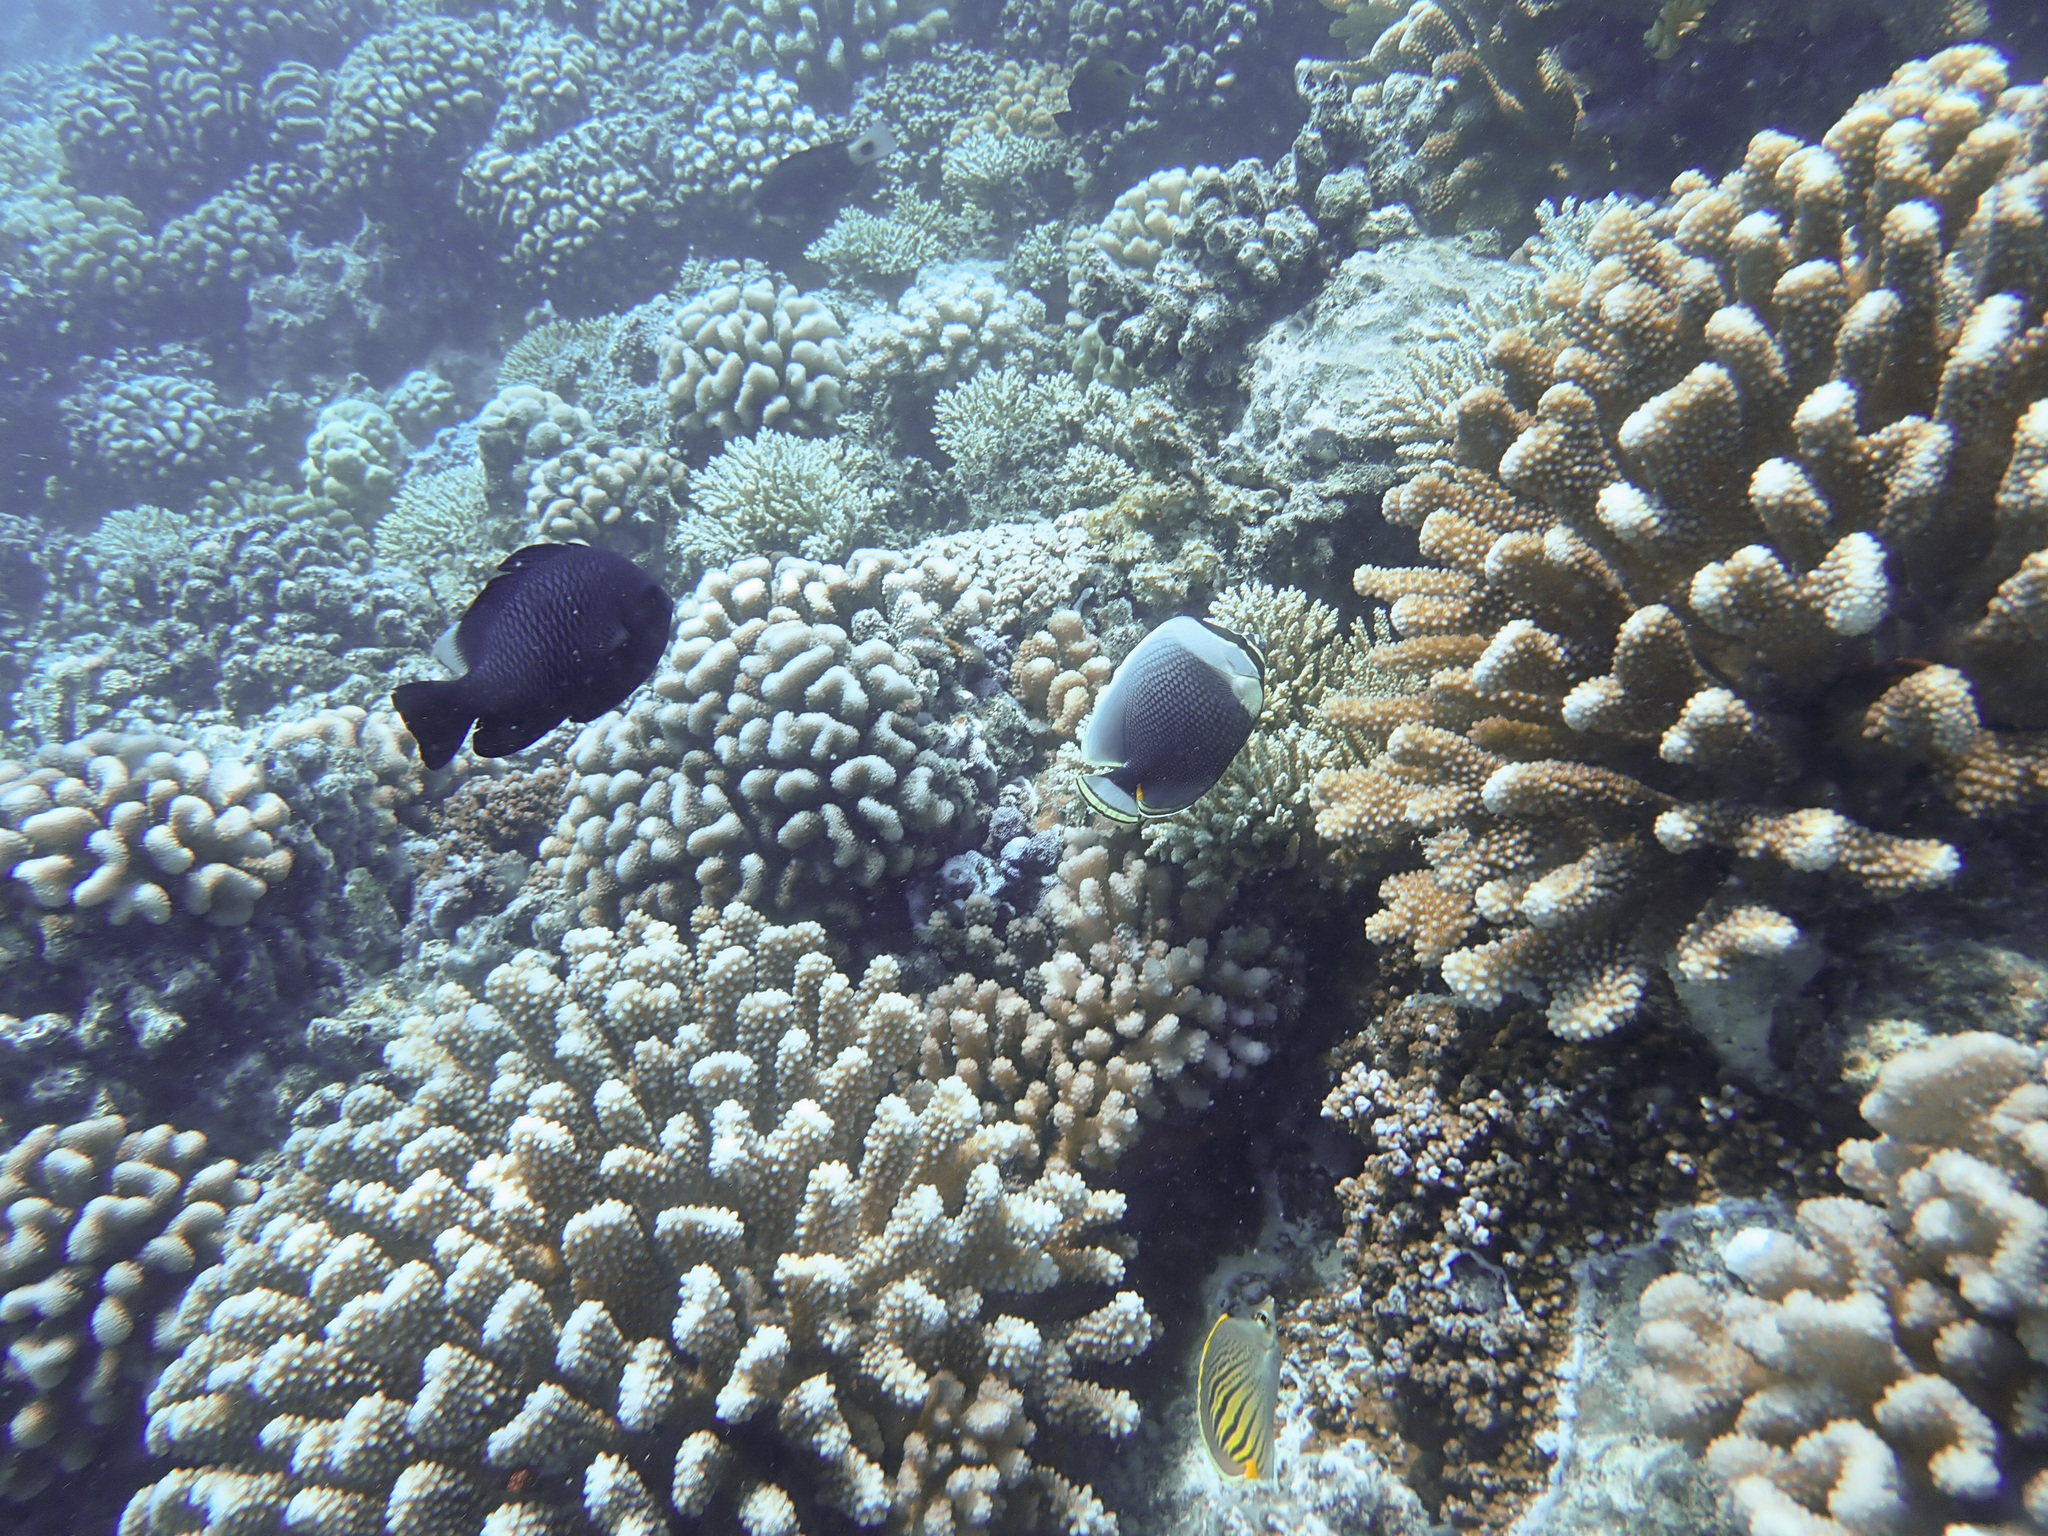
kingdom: Animalia
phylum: Chordata
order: Perciformes
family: Chaetodontidae
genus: Chaetodon
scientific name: Chaetodon reticulatus
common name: Reticulated butterflyfish
